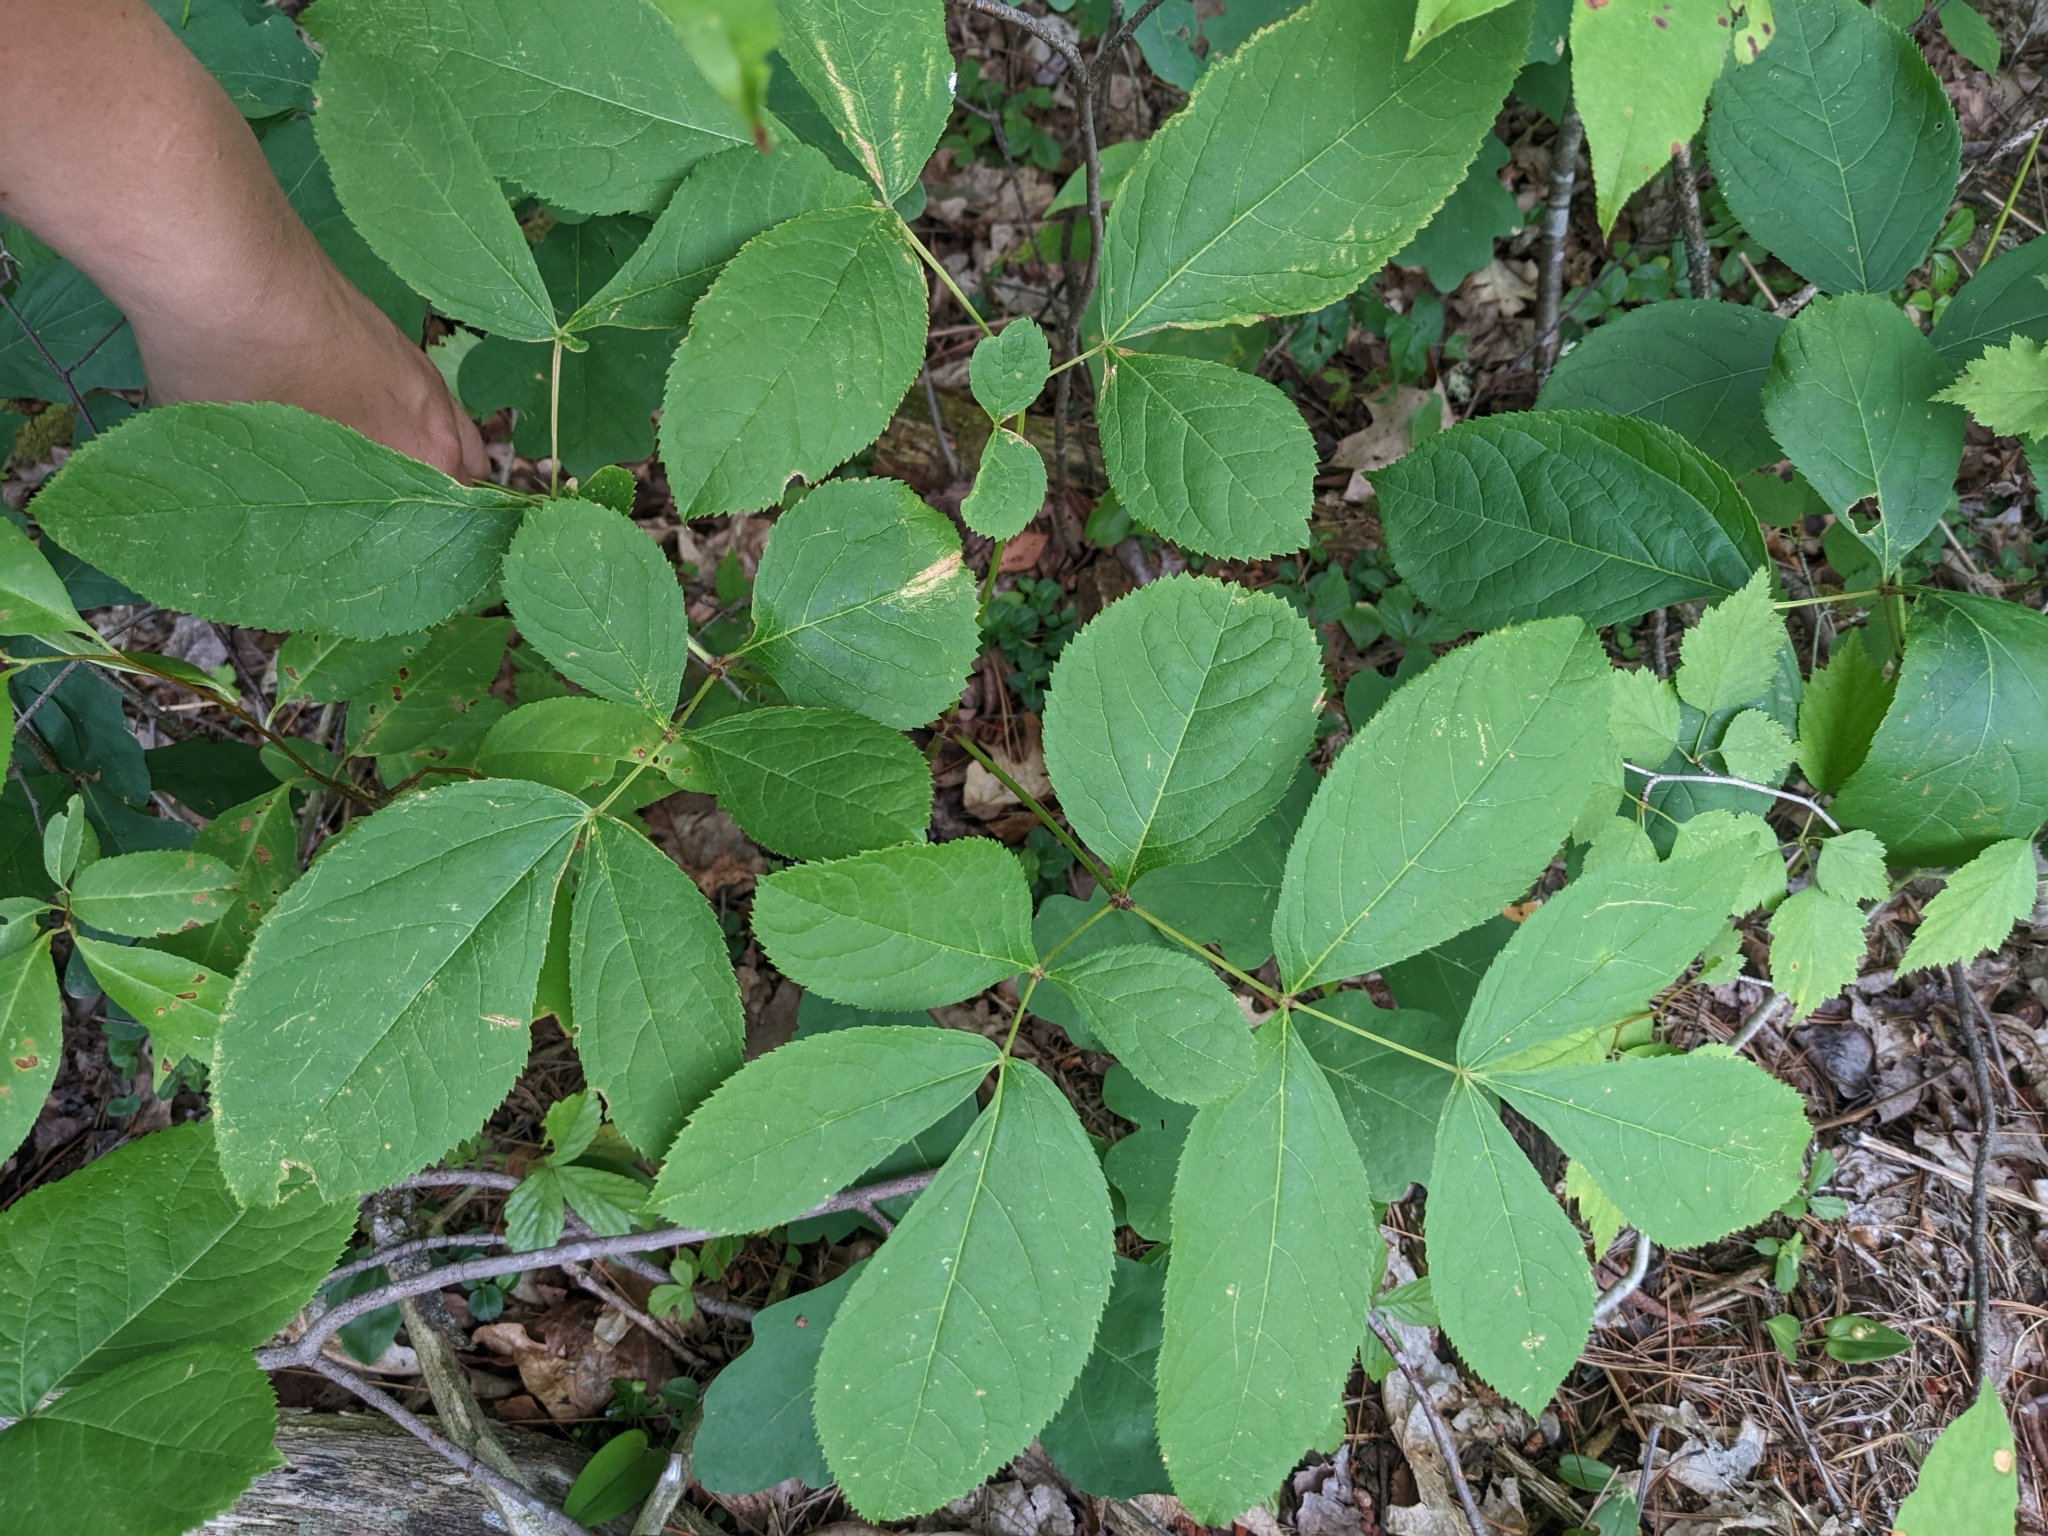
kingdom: Plantae
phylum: Tracheophyta
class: Magnoliopsida
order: Apiales
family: Araliaceae
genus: Aralia
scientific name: Aralia nudicaulis
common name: Wild sarsaparilla
